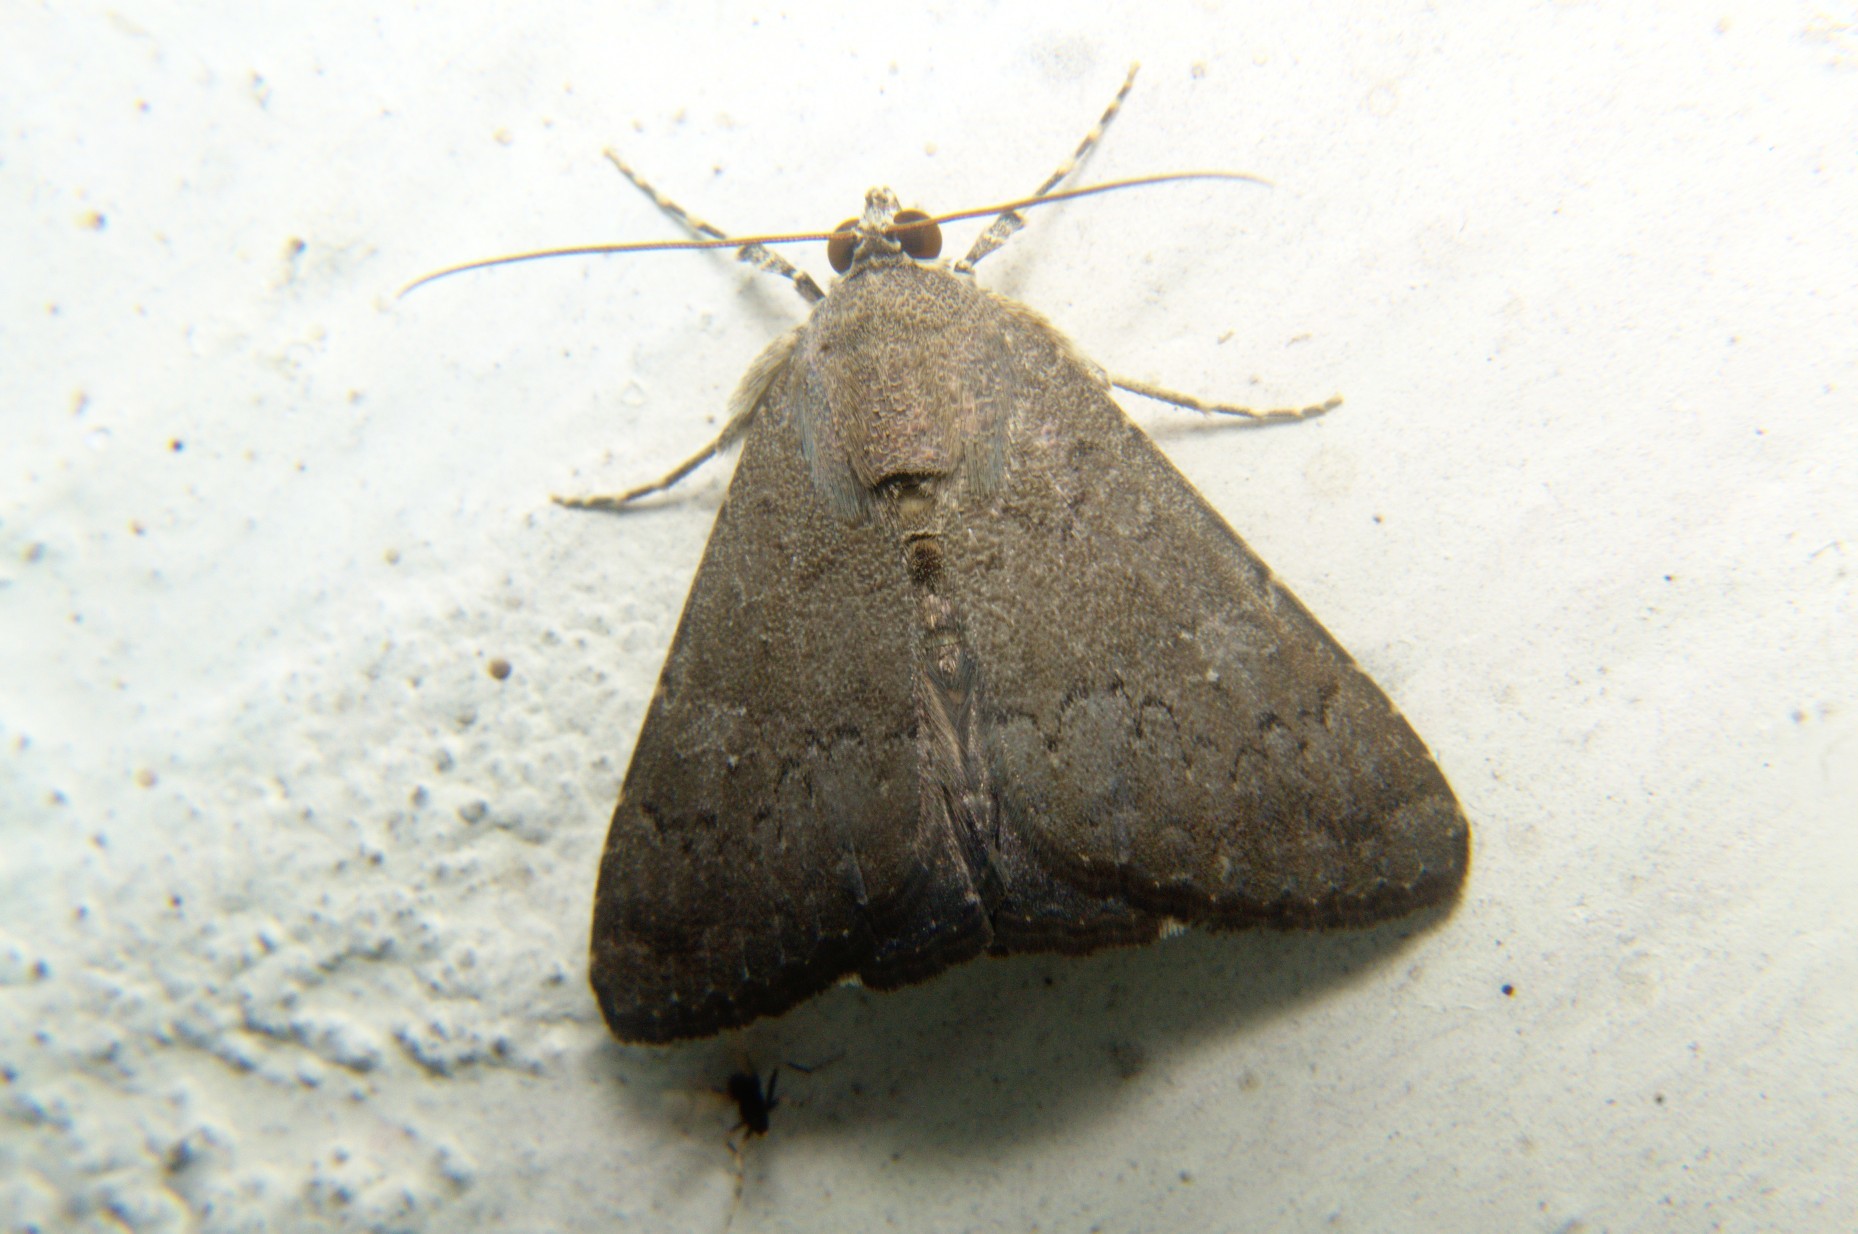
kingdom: Animalia
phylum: Arthropoda
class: Insecta
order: Lepidoptera
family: Noctuidae
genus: Amyna
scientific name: Amyna punctum
